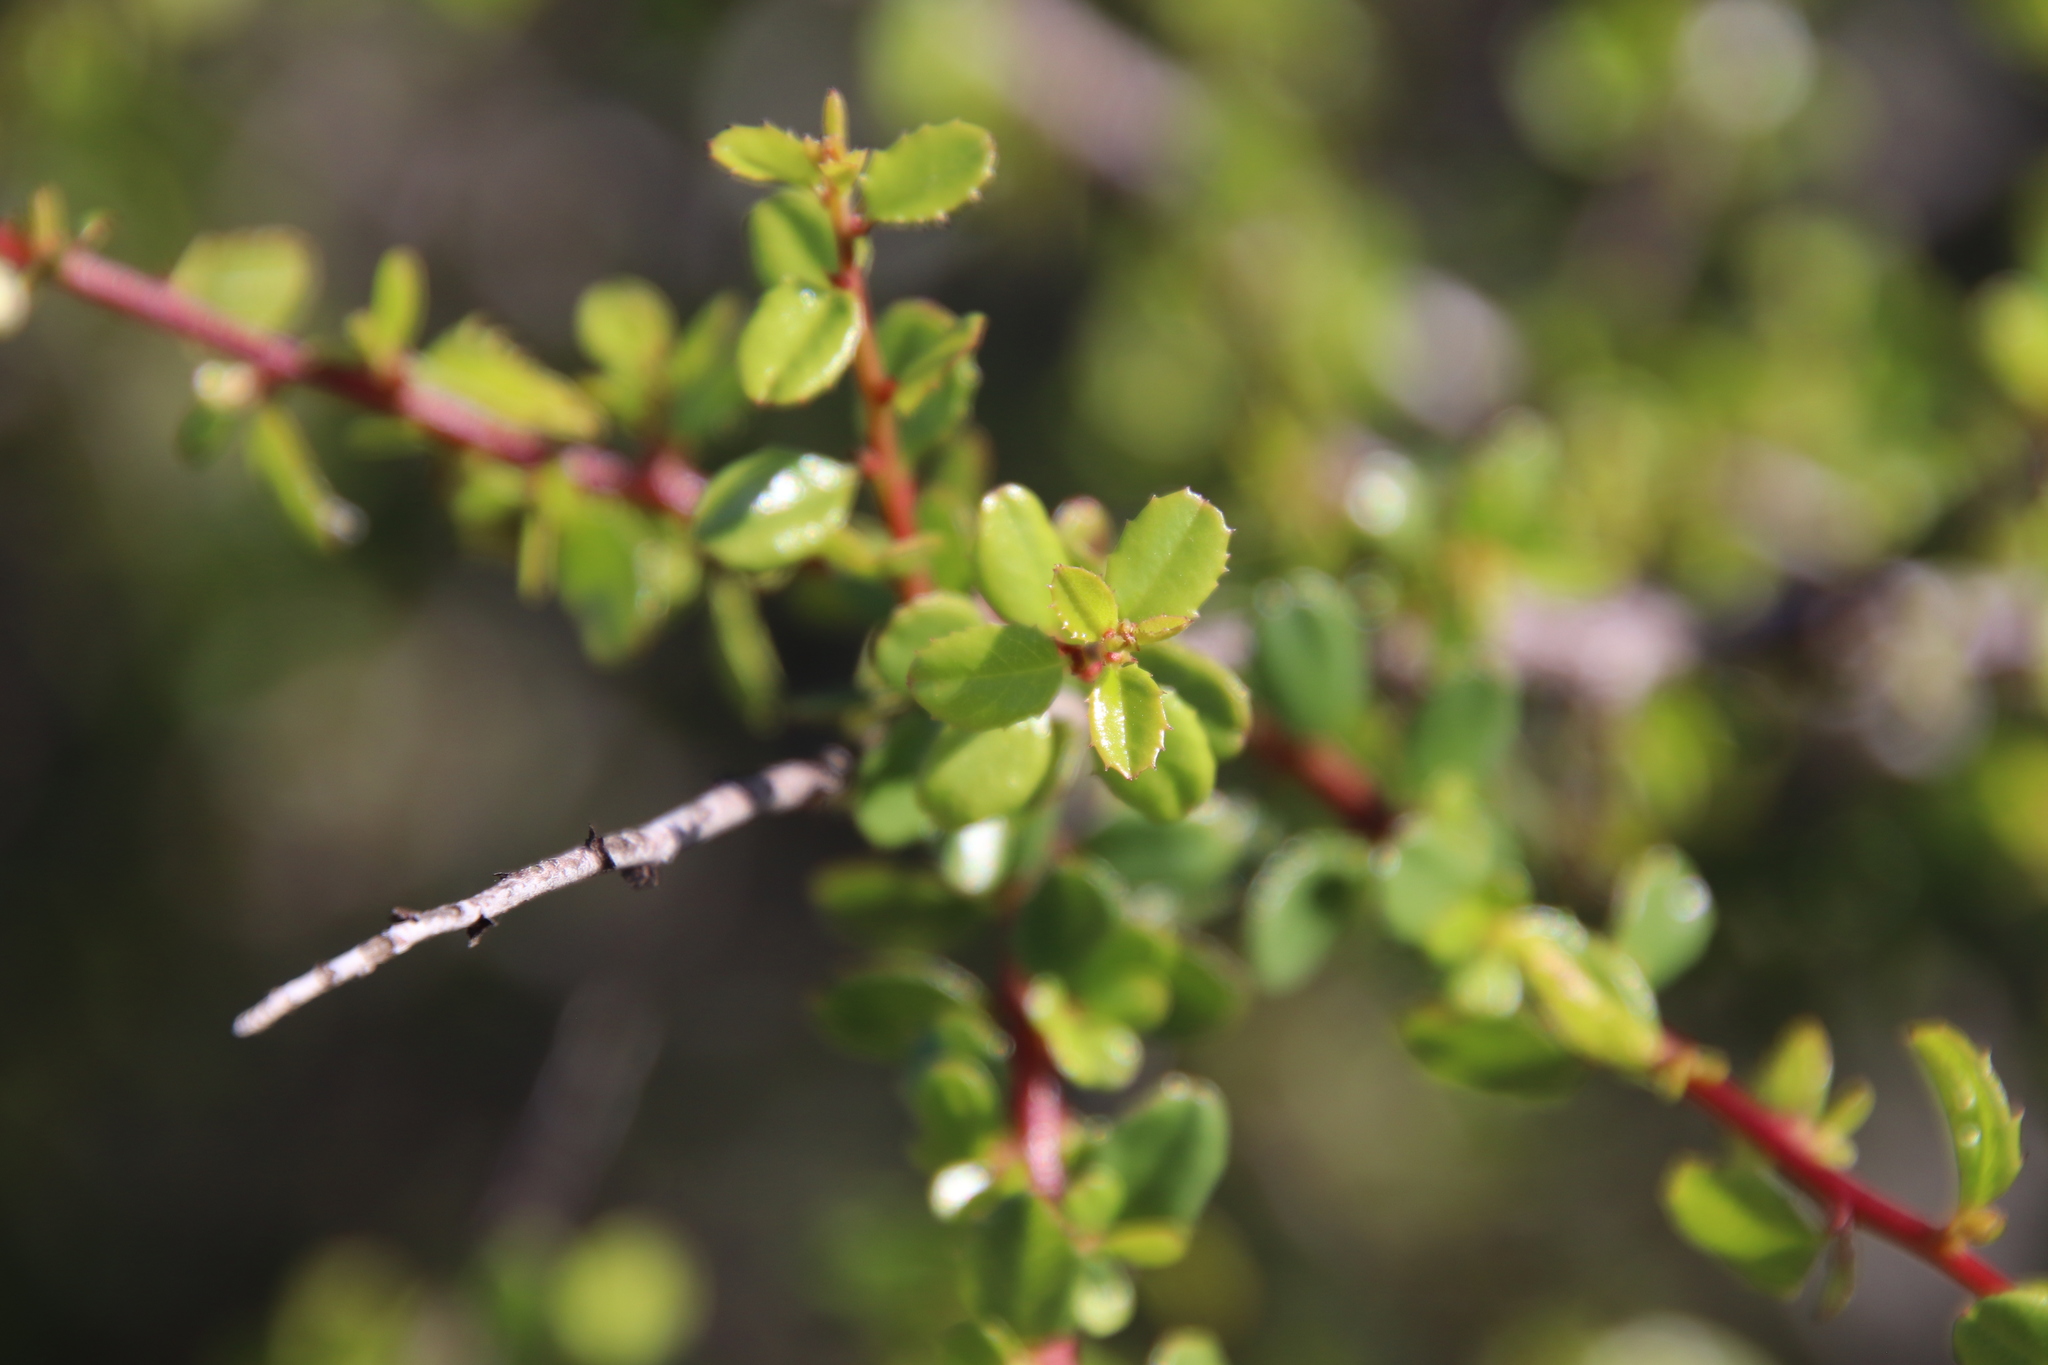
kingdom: Plantae
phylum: Tracheophyta
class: Magnoliopsida
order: Rosales
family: Rhamnaceae
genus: Endotropis
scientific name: Endotropis crocea
